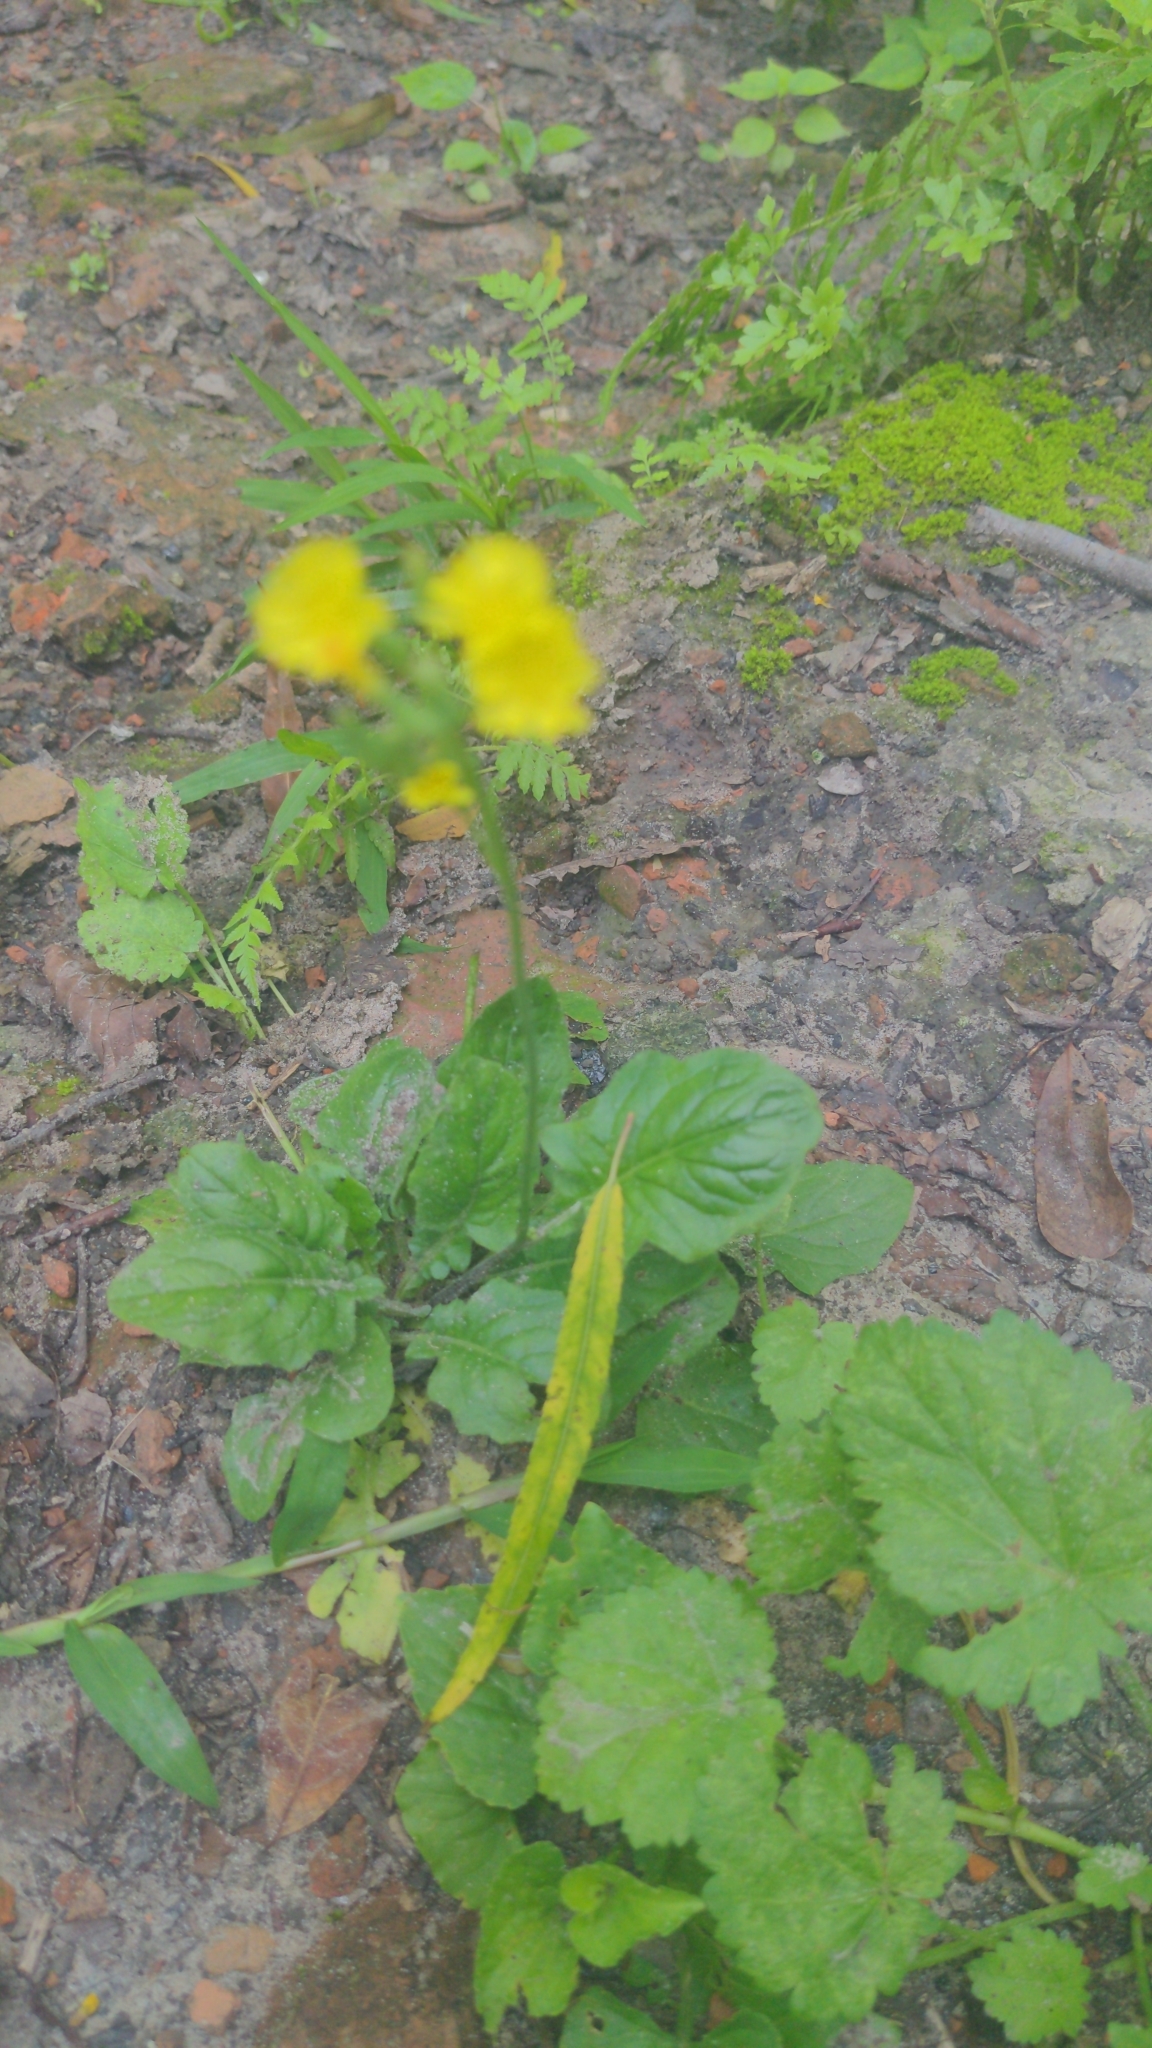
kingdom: Plantae
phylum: Tracheophyta
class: Magnoliopsida
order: Asterales
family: Asteraceae
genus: Youngia
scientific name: Youngia japonica
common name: Oriental false hawksbeard
